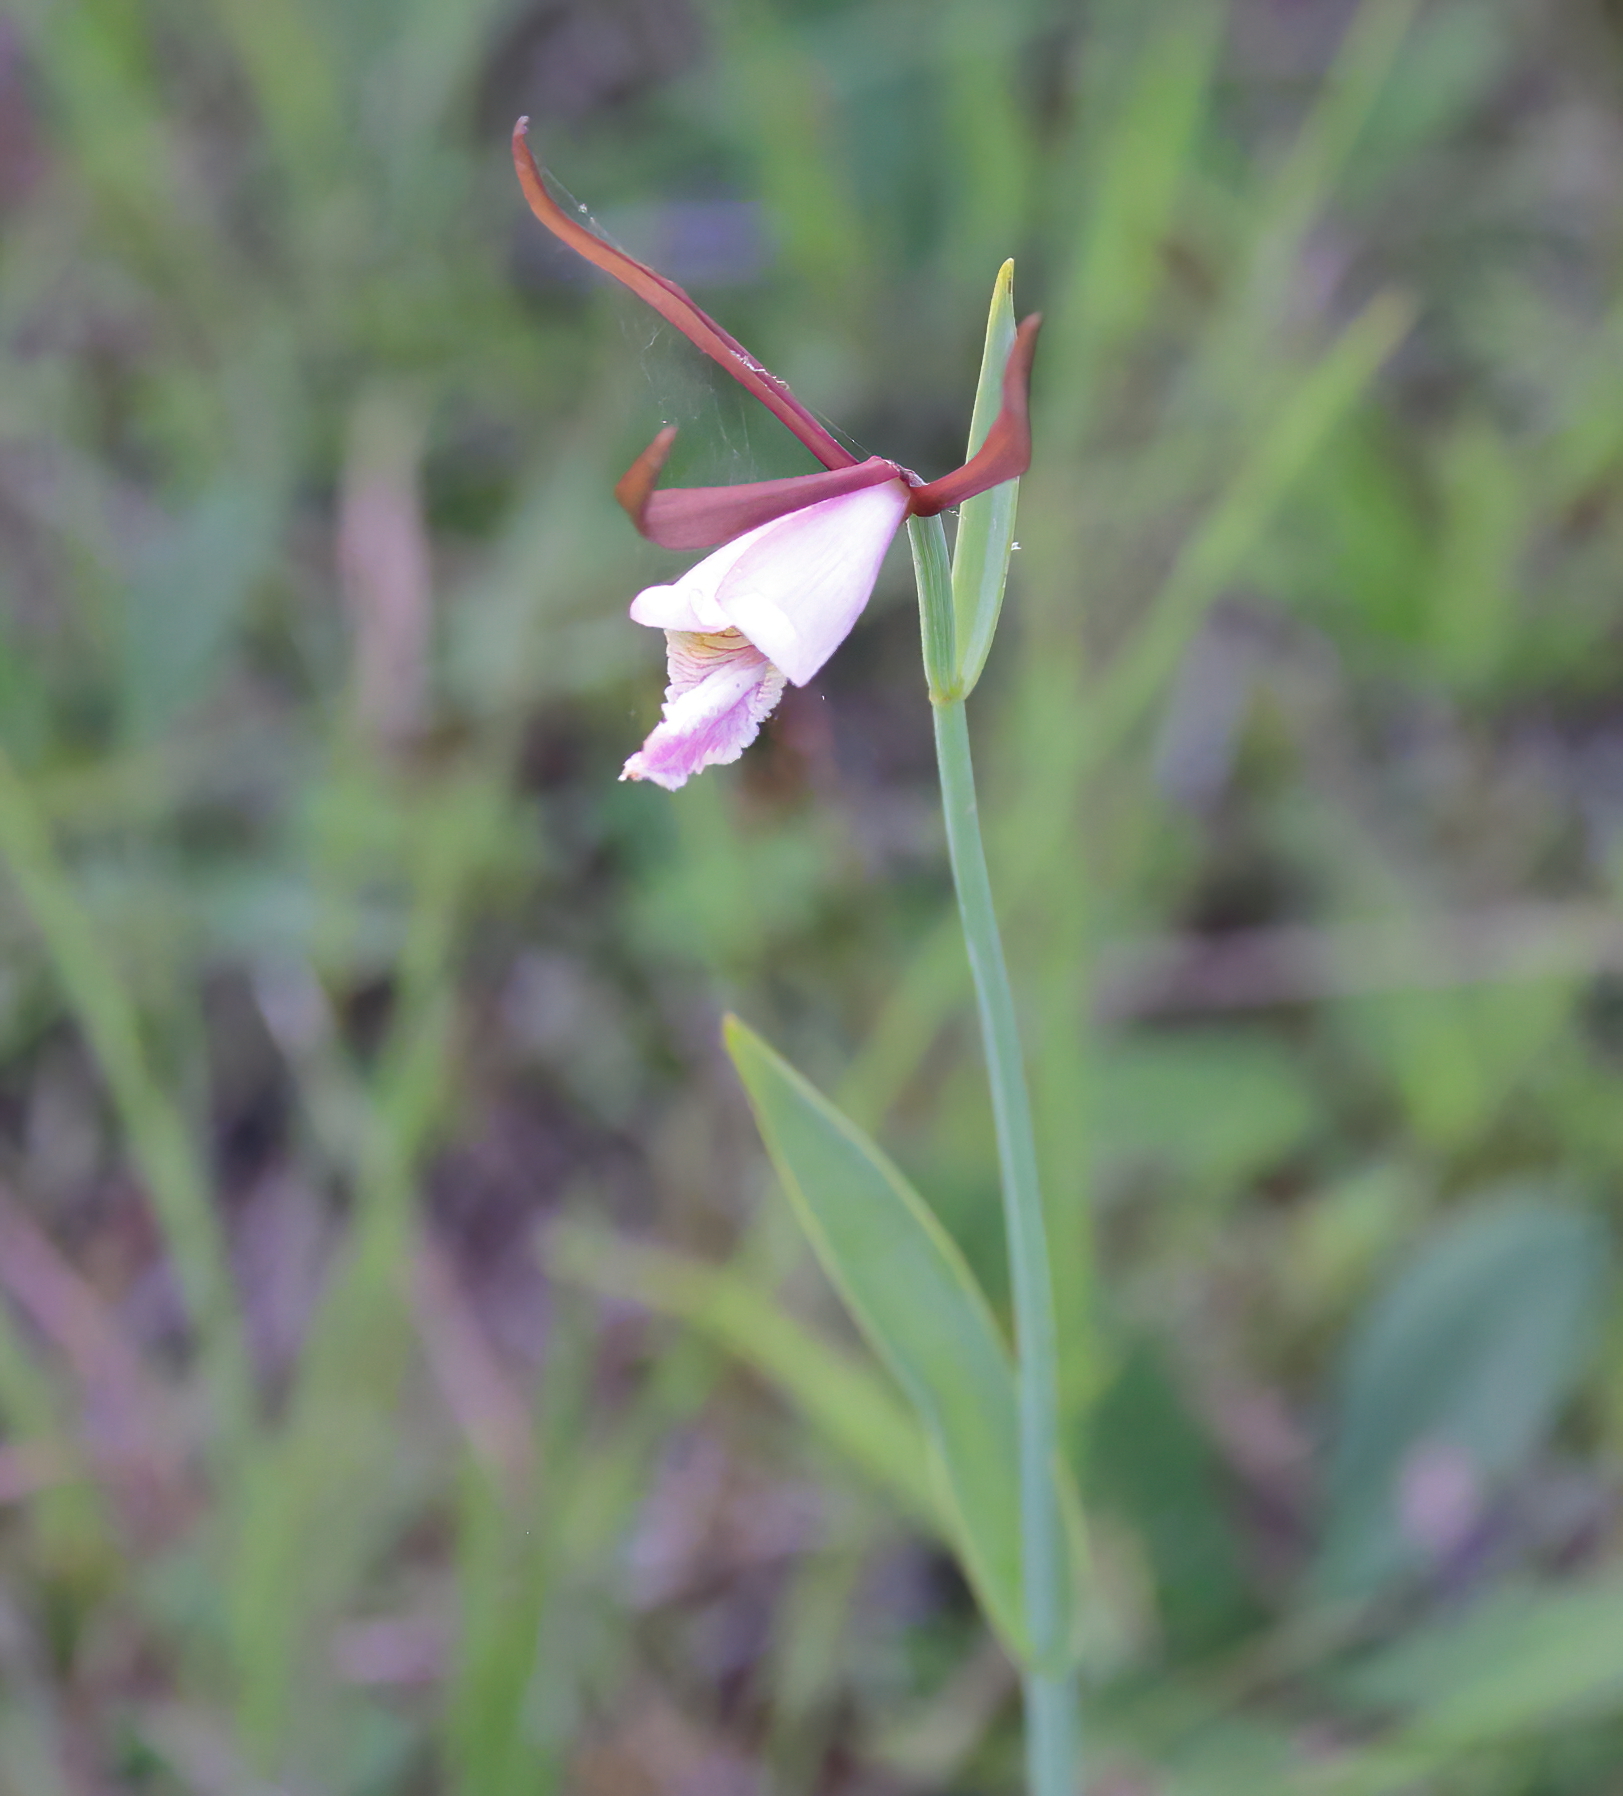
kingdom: Plantae
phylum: Tracheophyta
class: Liliopsida
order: Asparagales
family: Orchidaceae
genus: Cleistesiopsis
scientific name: Cleistesiopsis oricamporum
